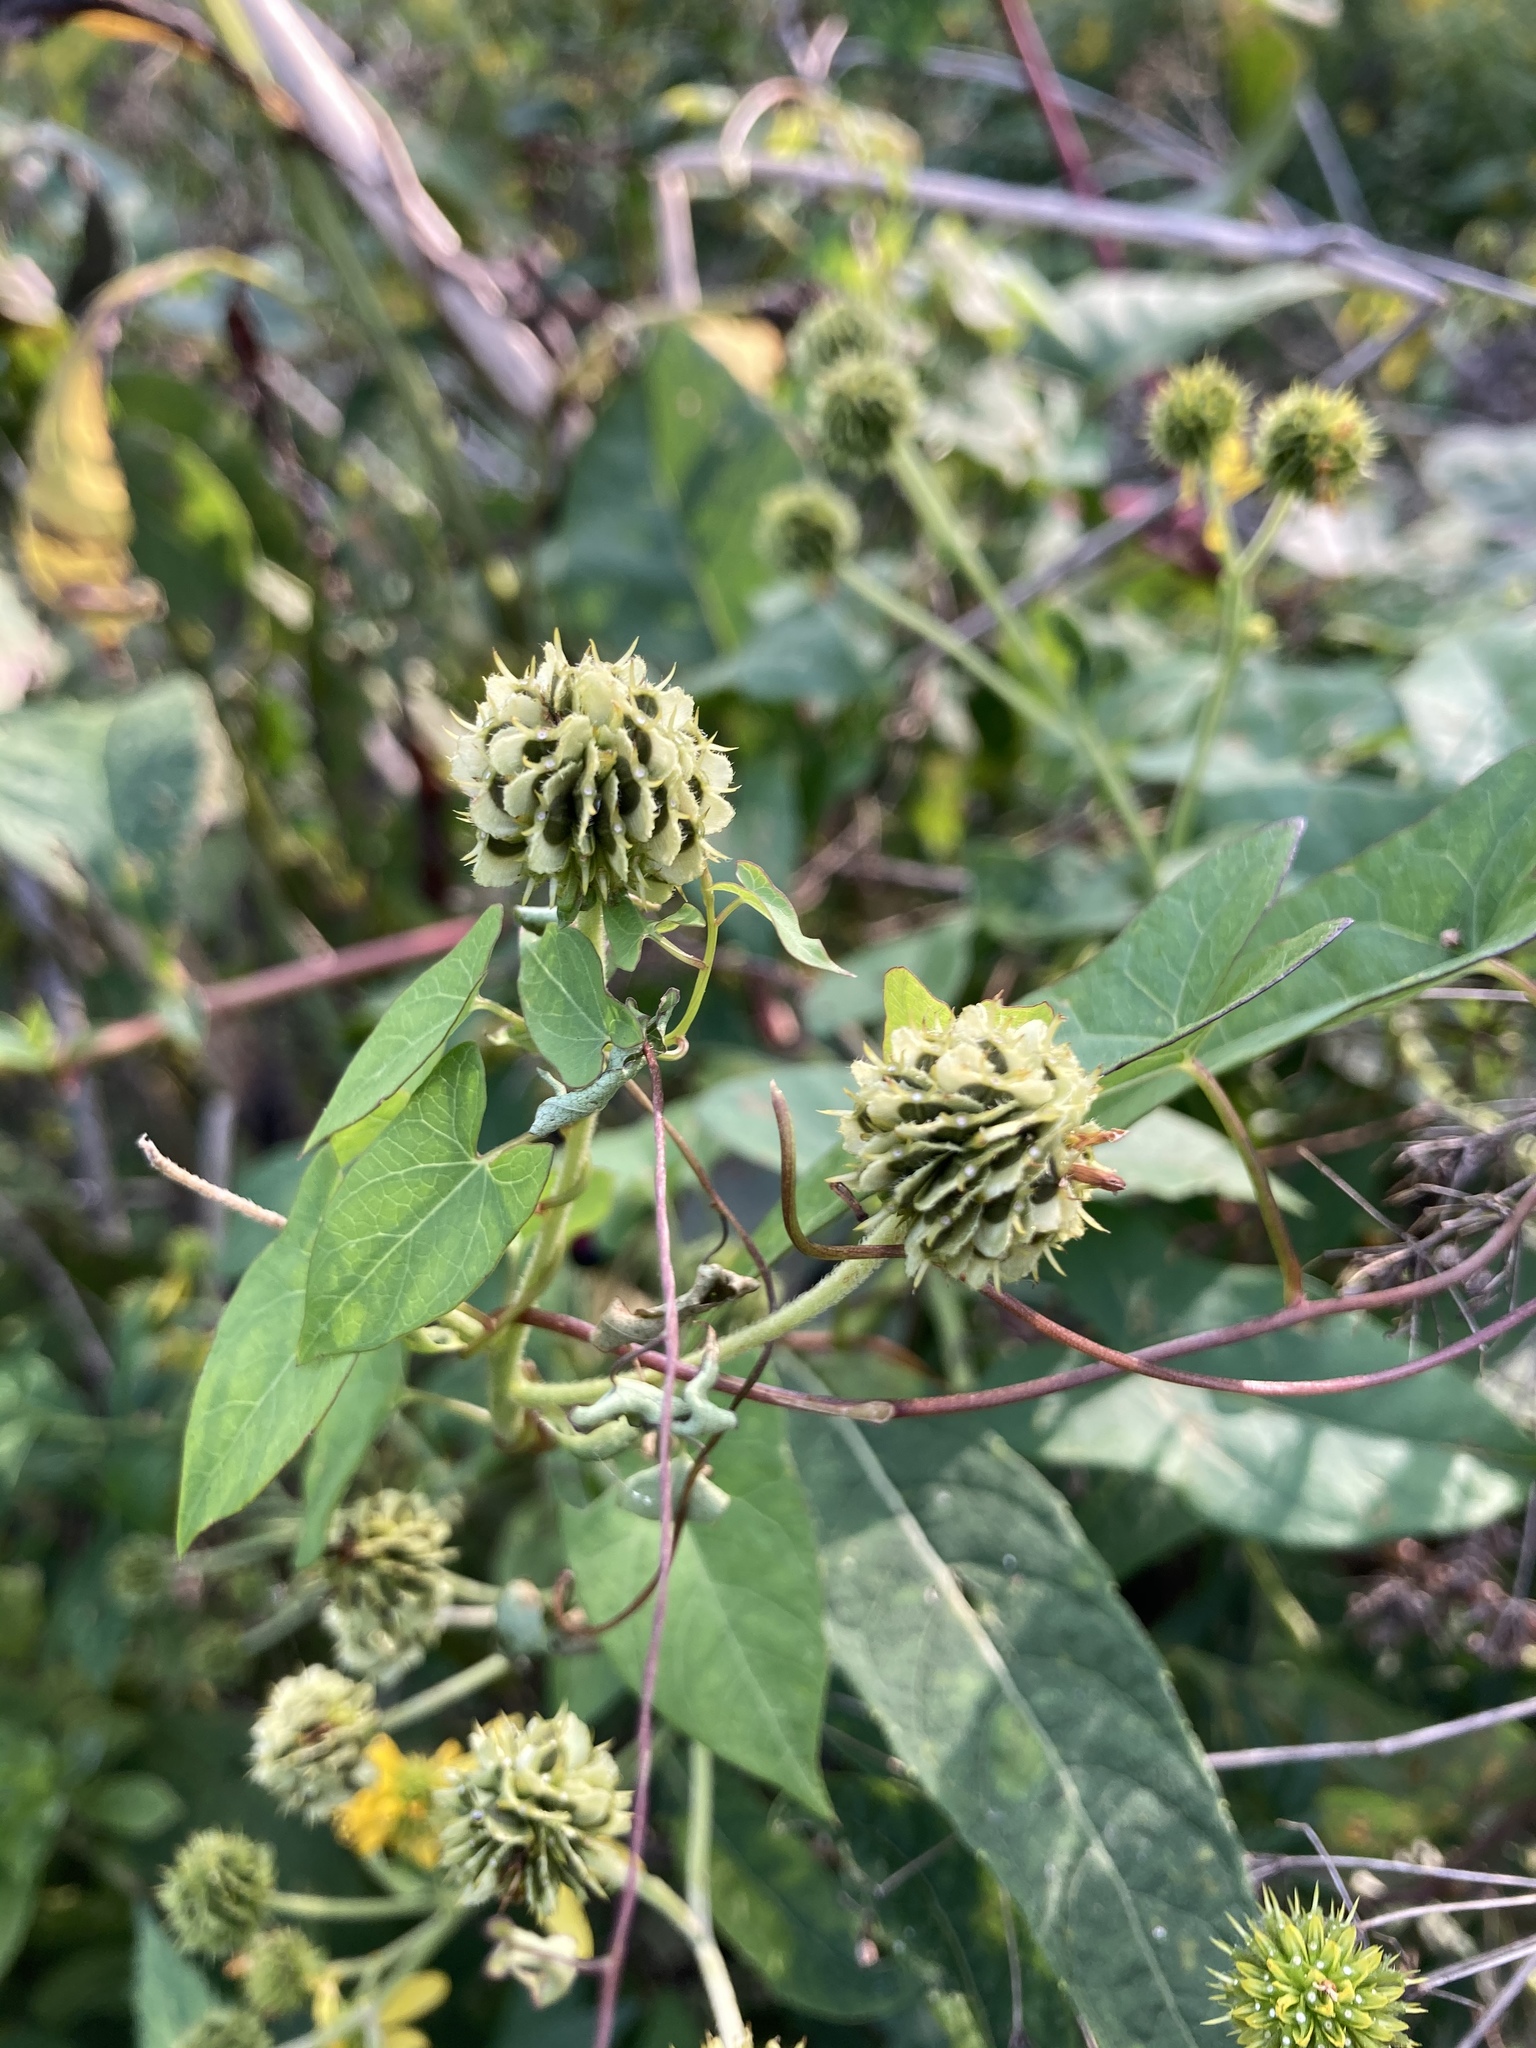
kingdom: Plantae
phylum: Tracheophyta
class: Magnoliopsida
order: Asterales
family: Asteraceae
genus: Verbesina
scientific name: Verbesina alternifolia
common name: Wingstem
